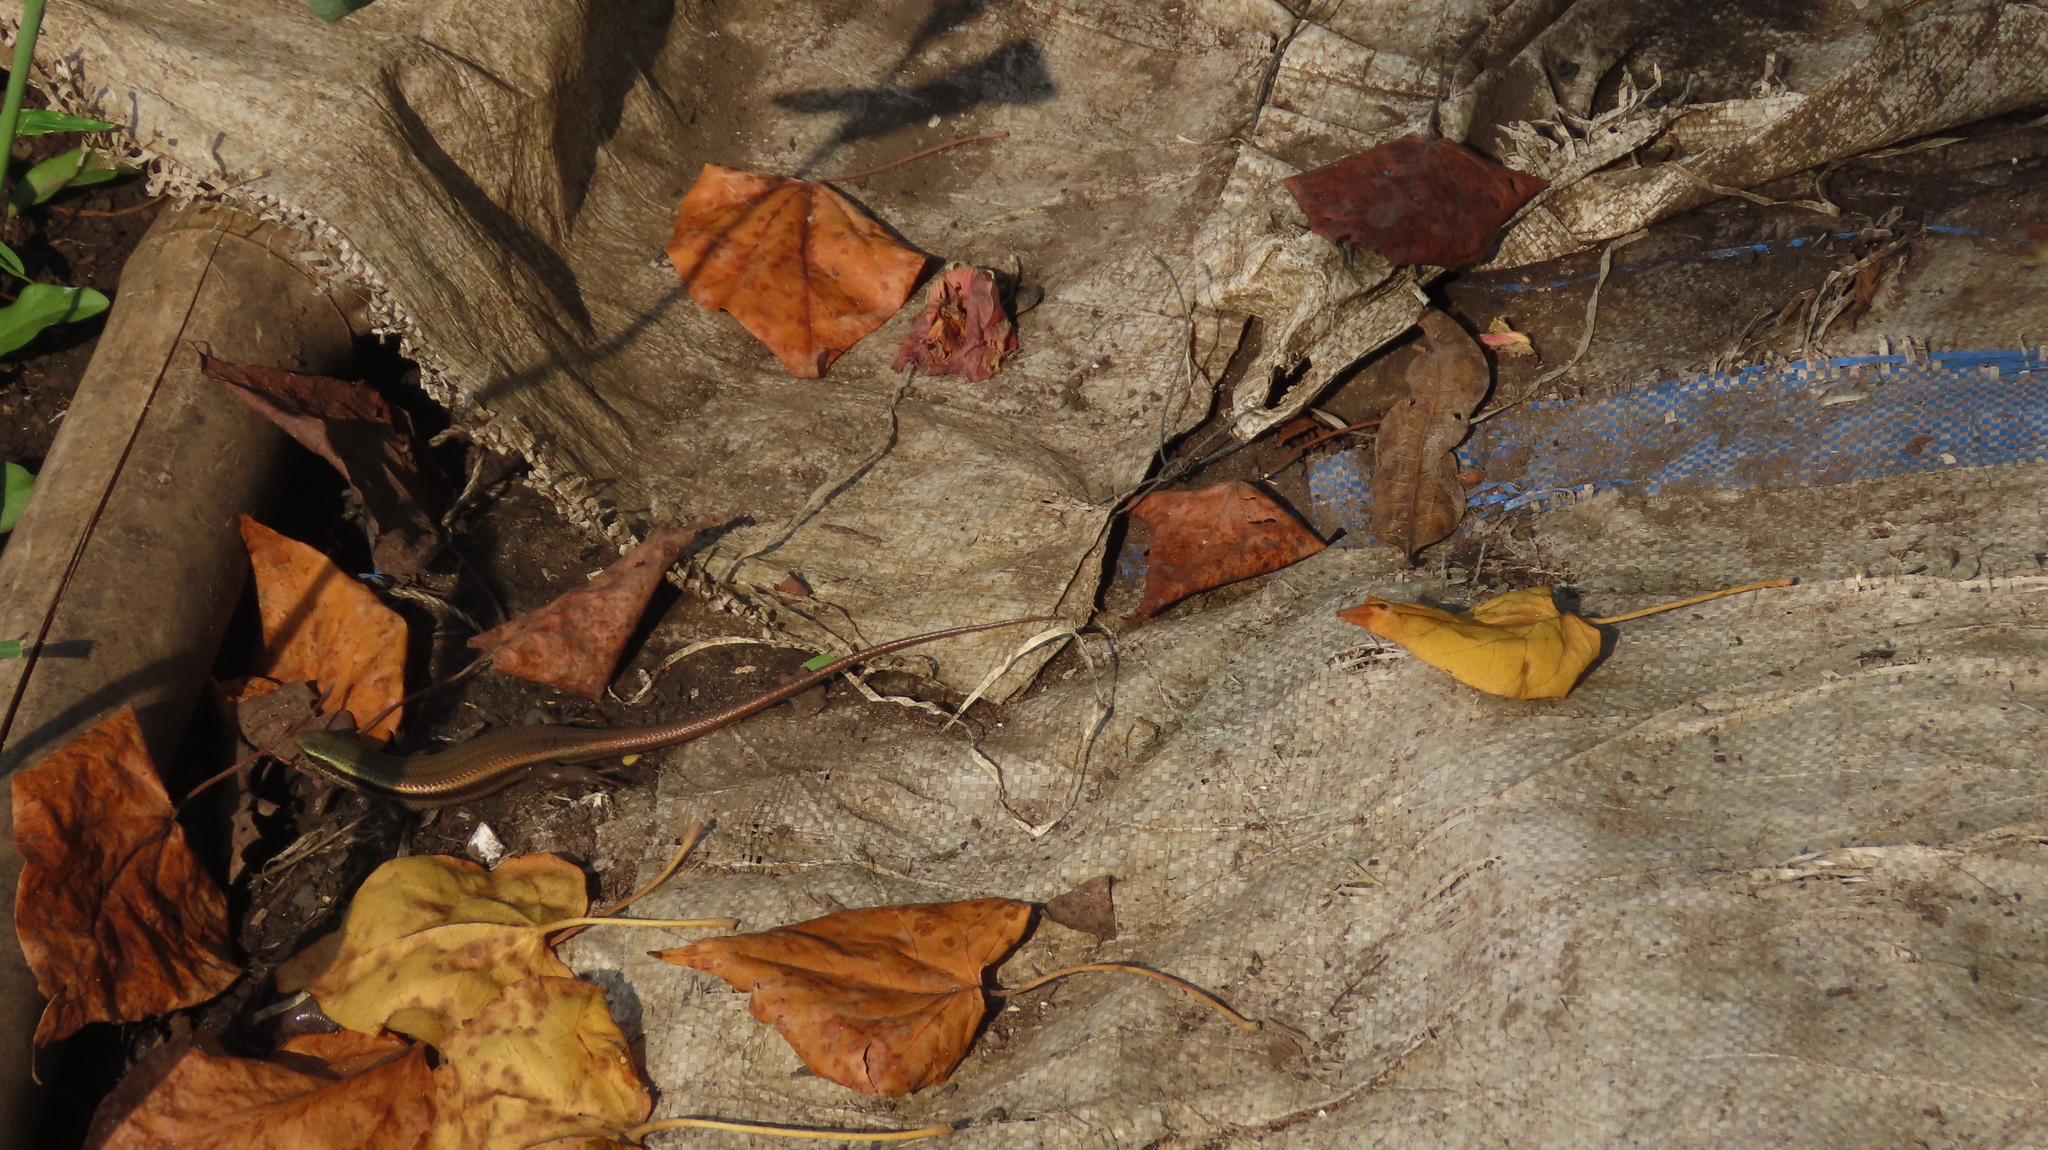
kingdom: Animalia
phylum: Chordata
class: Squamata
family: Scincidae
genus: Eutropis
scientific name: Eutropis carinata
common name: Keeled indian mabuya
